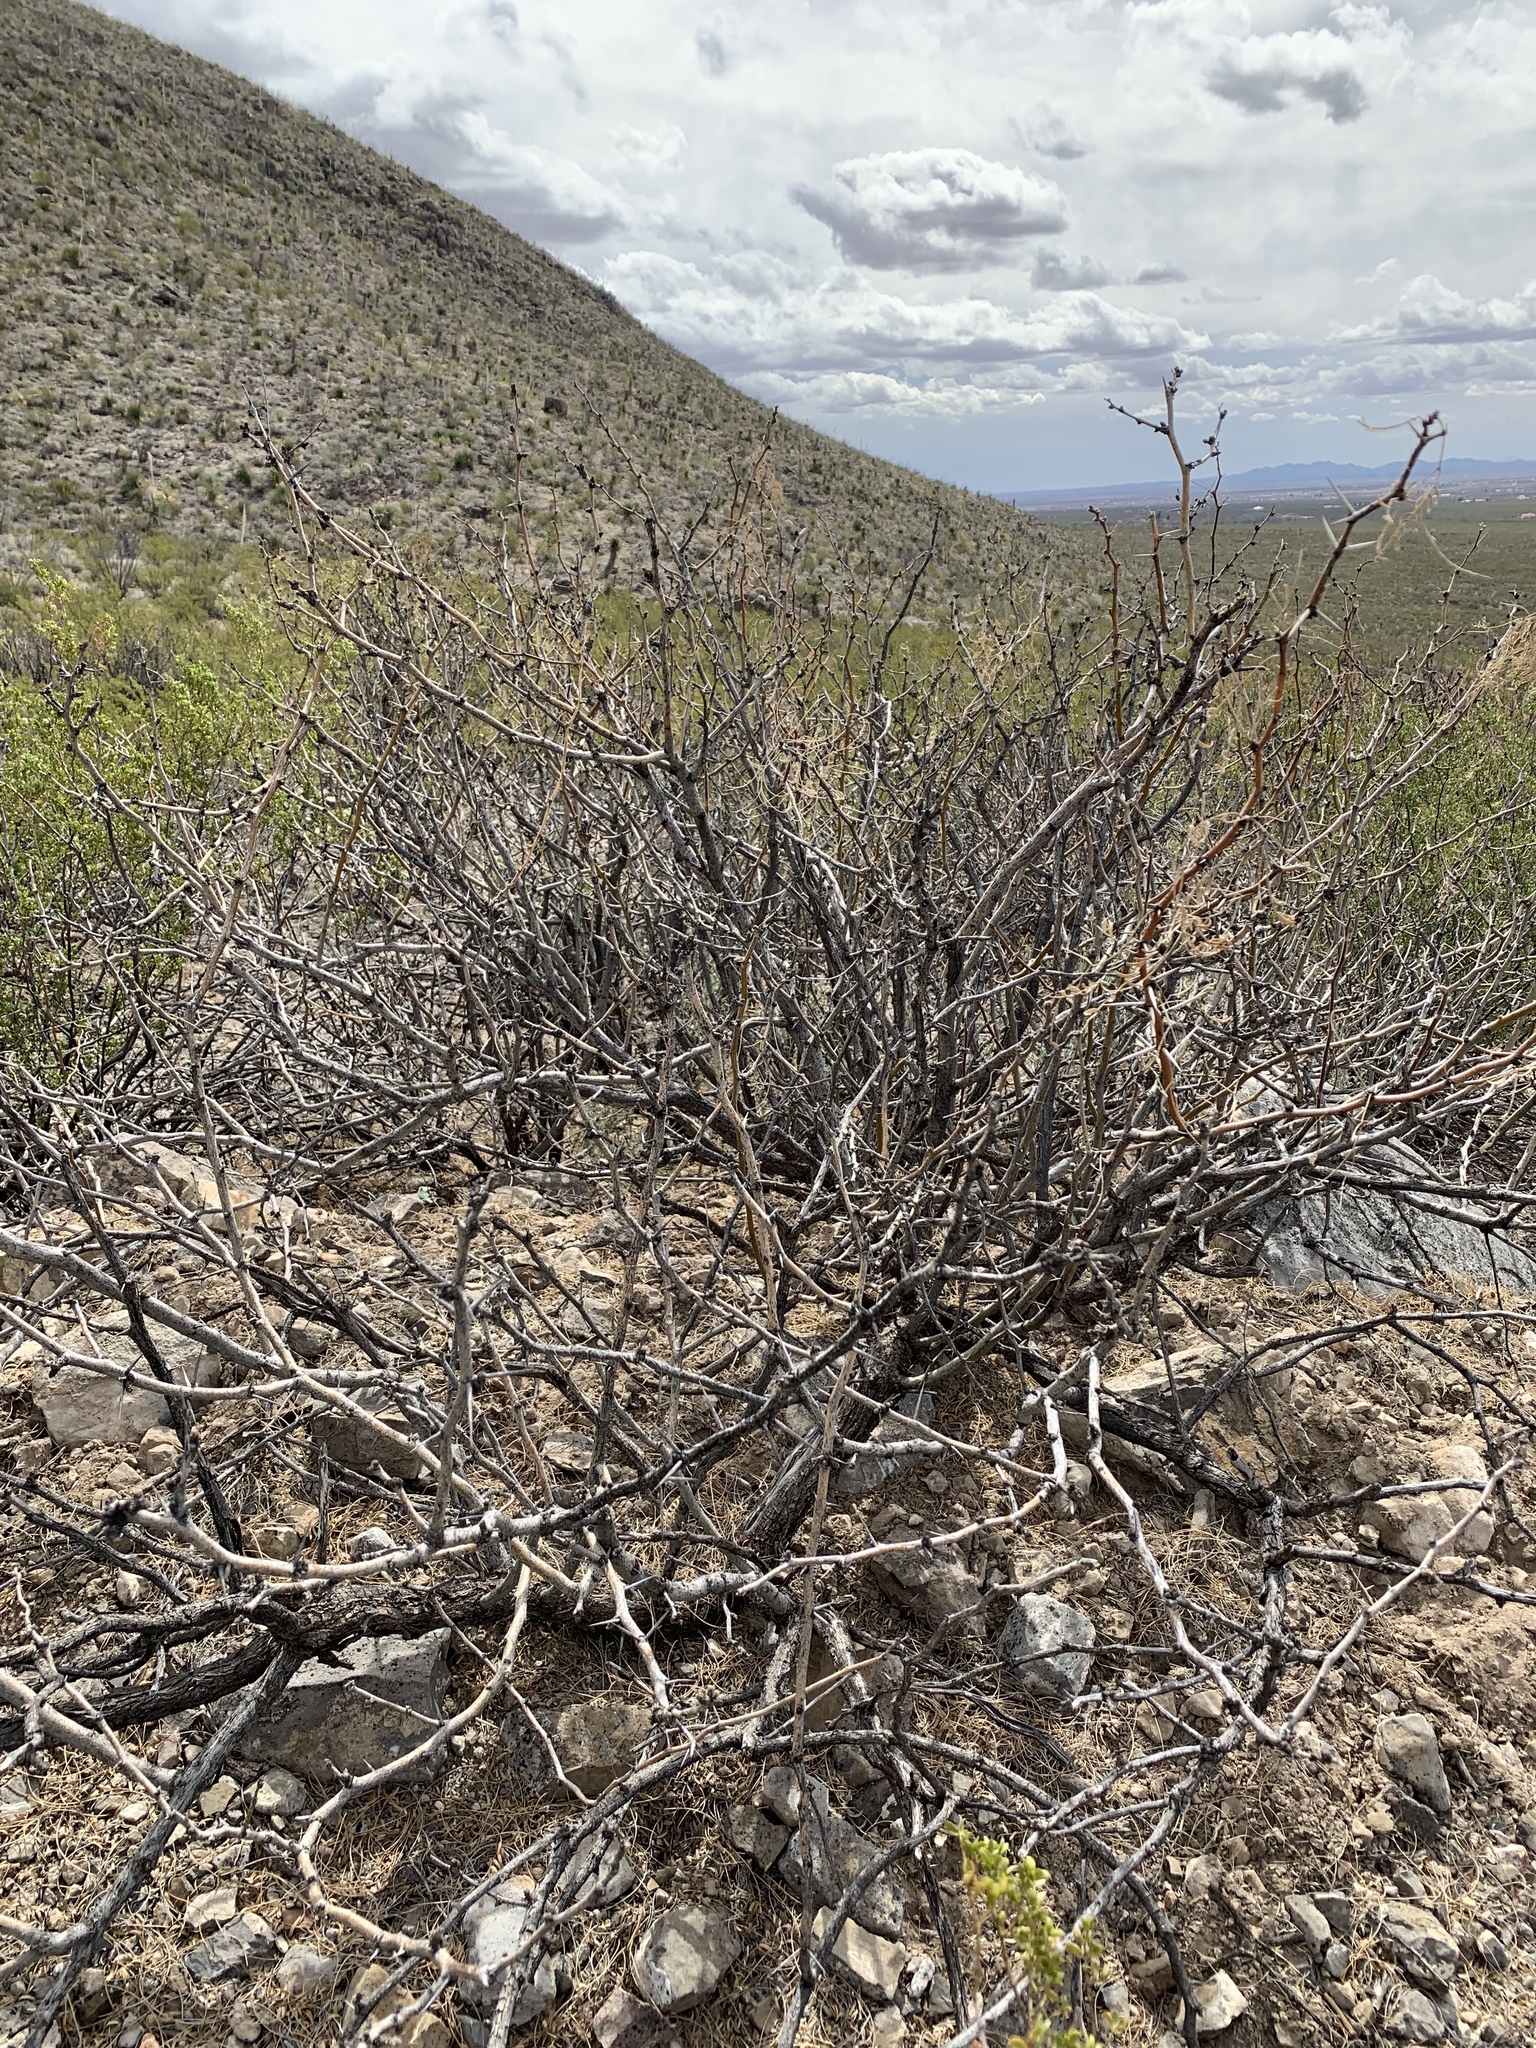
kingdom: Plantae
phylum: Tracheophyta
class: Magnoliopsida
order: Fabales
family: Fabaceae
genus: Prosopis
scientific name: Prosopis glandulosa
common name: Honey mesquite
